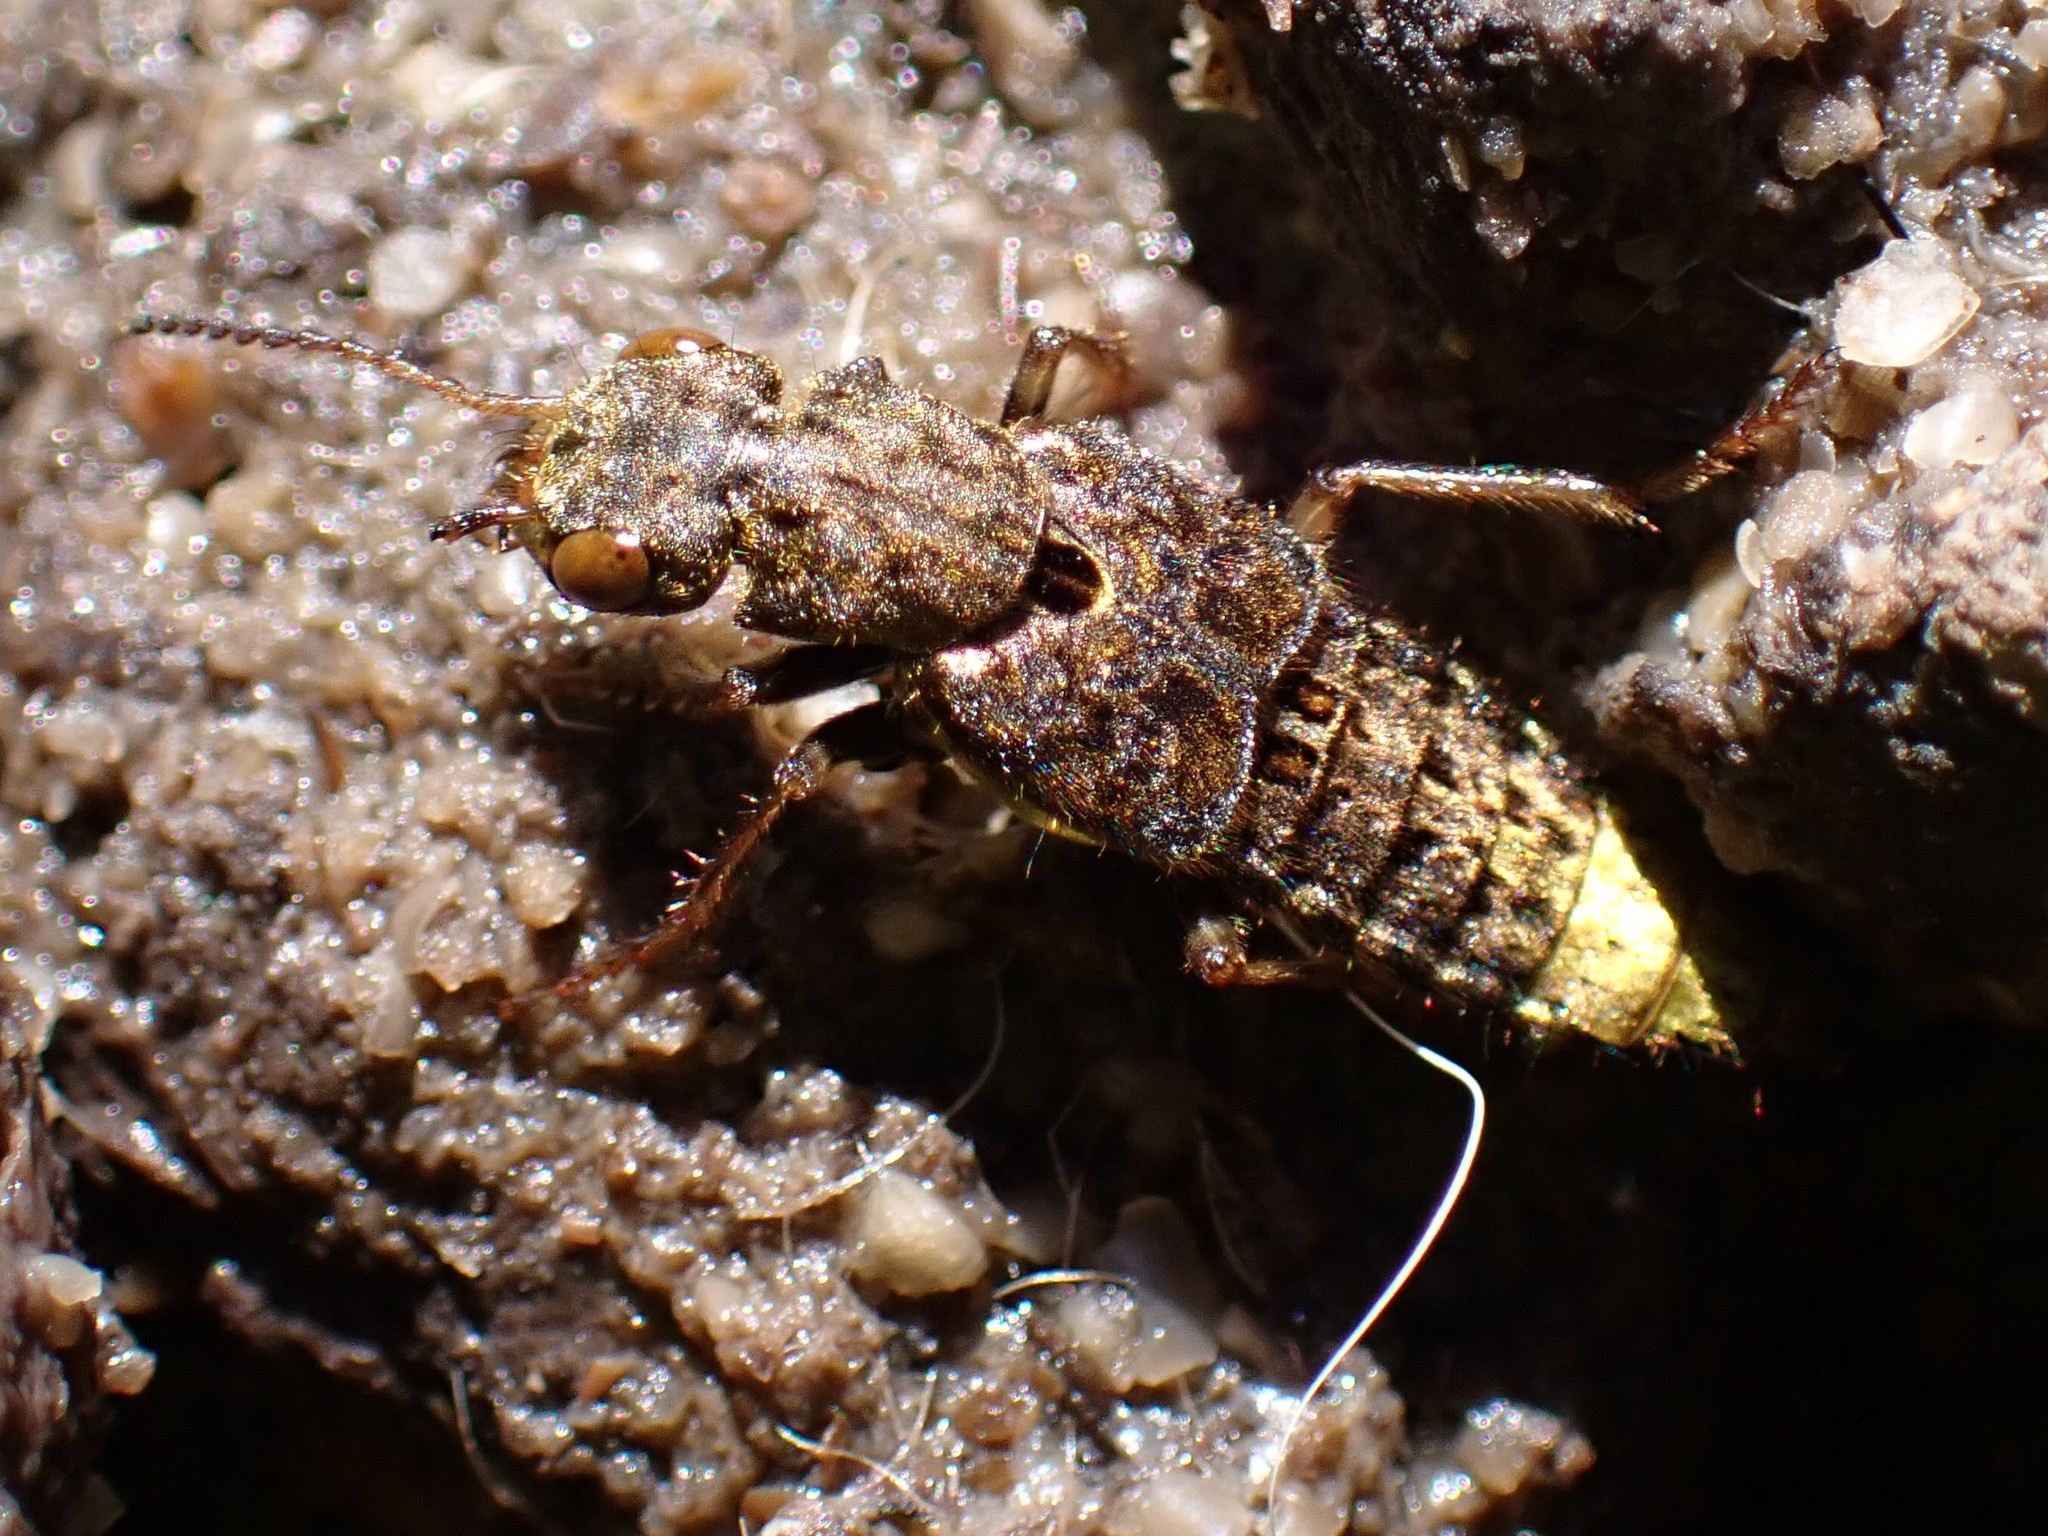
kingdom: Animalia
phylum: Arthropoda
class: Insecta
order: Coleoptera
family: Staphylinidae
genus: Ontholestes
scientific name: Ontholestes cingulatus
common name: Gold-and-brown rove beetle
